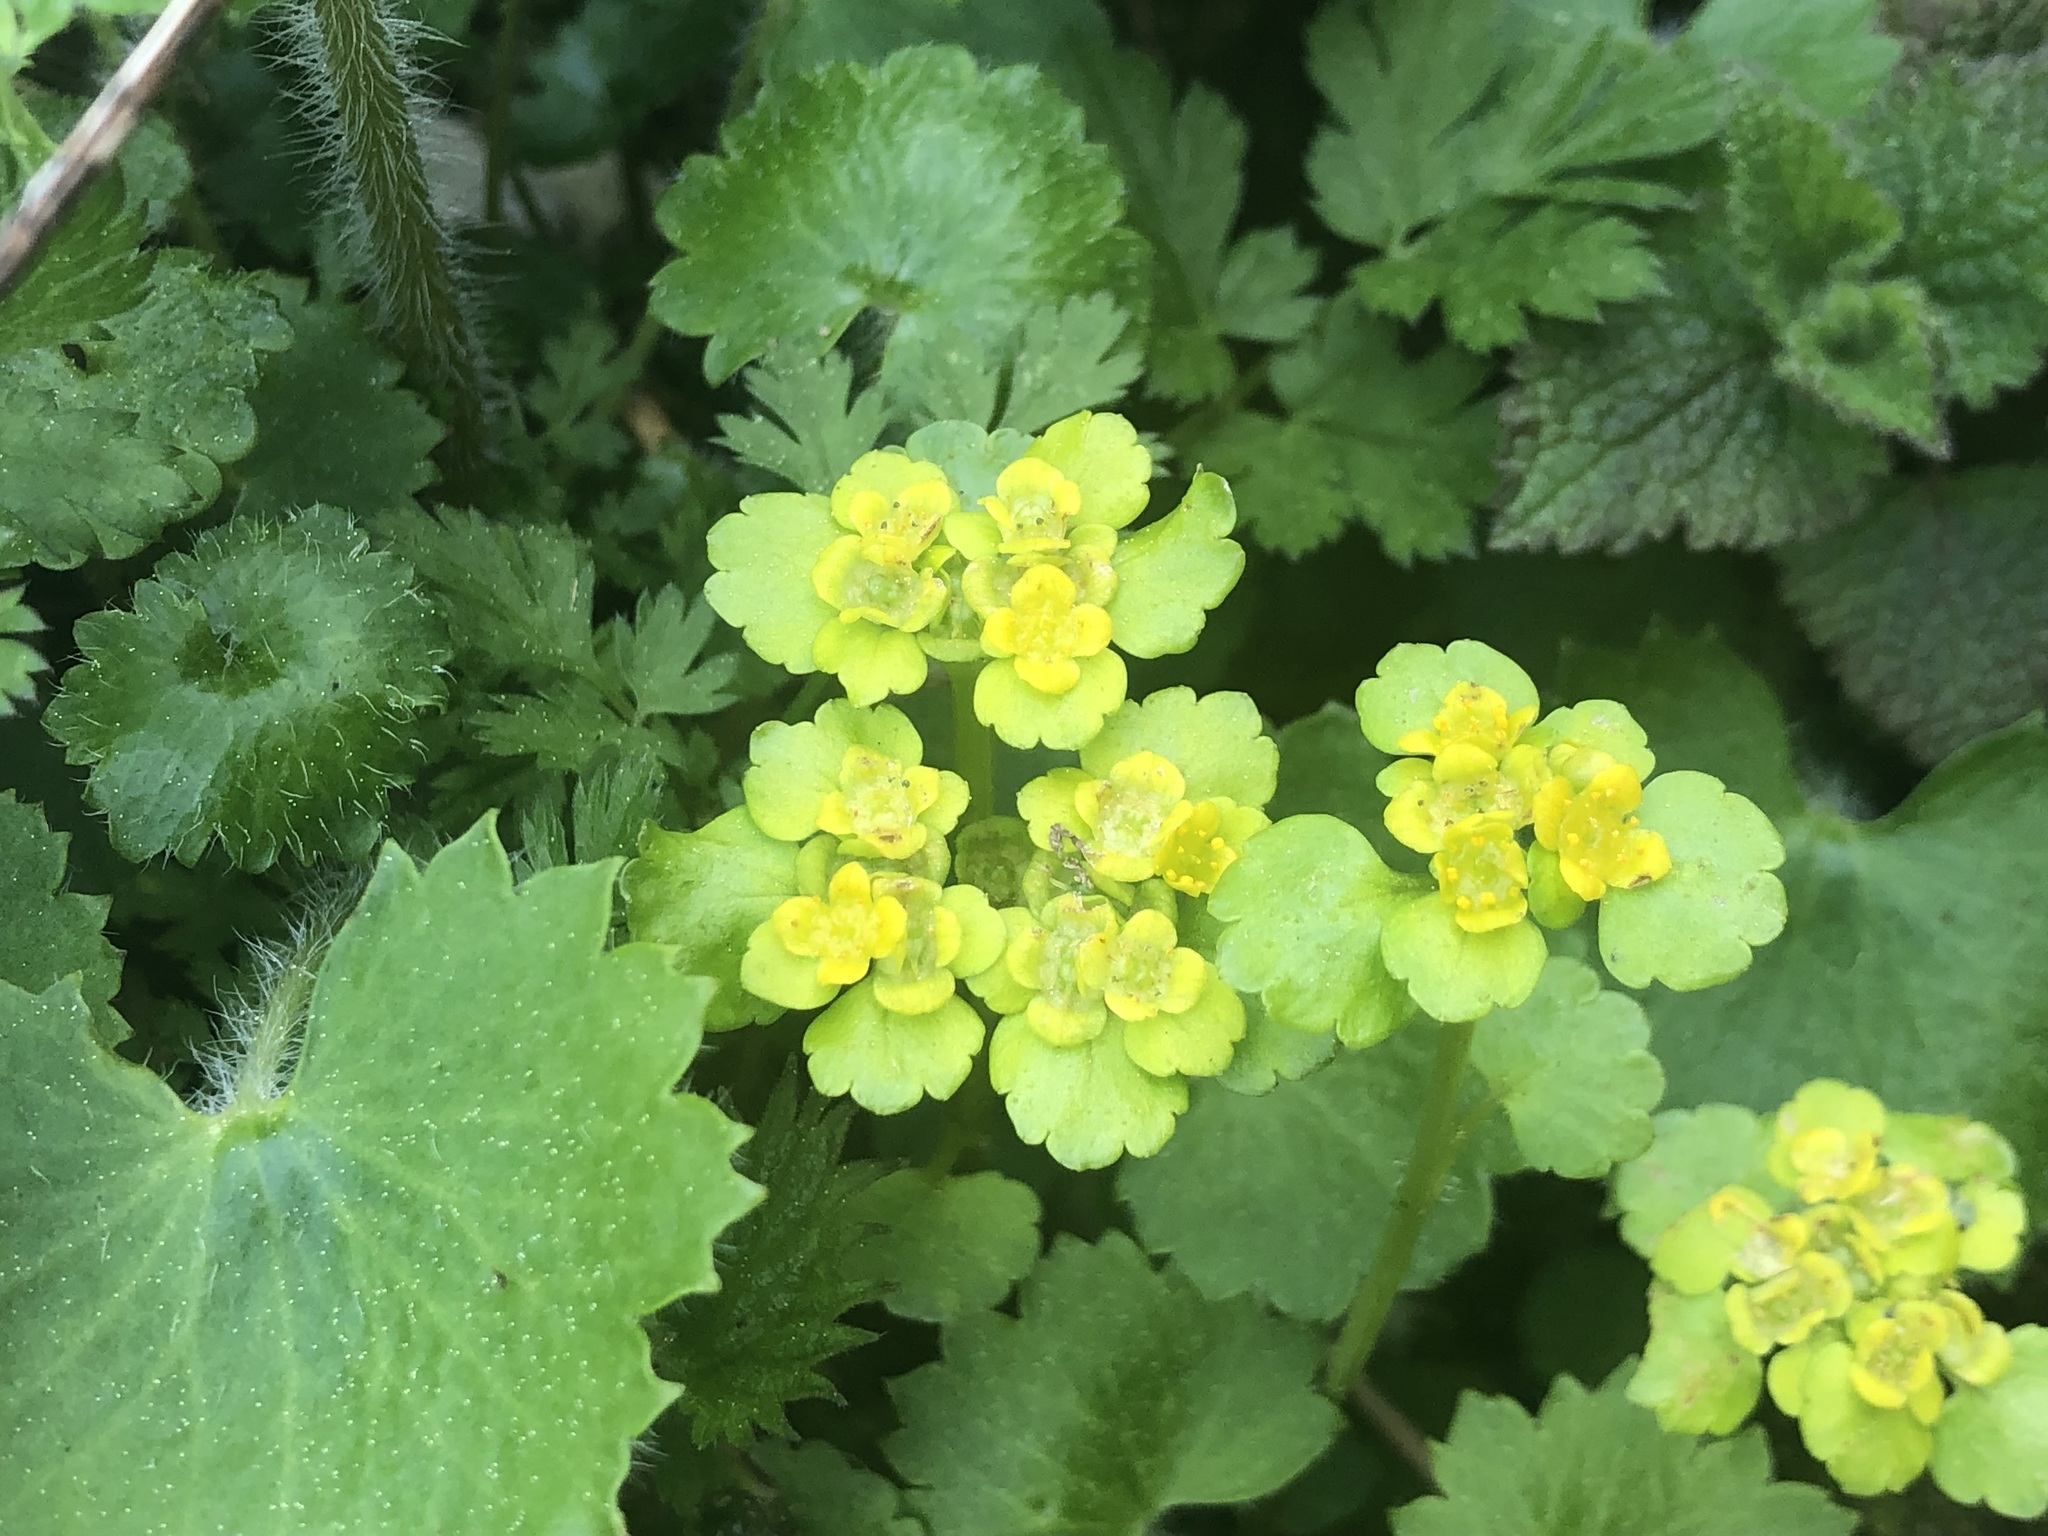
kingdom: Plantae
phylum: Tracheophyta
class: Magnoliopsida
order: Saxifragales
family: Saxifragaceae
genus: Chrysosplenium
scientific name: Chrysosplenium alternifolium
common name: Alternate-leaved golden-saxifrage
